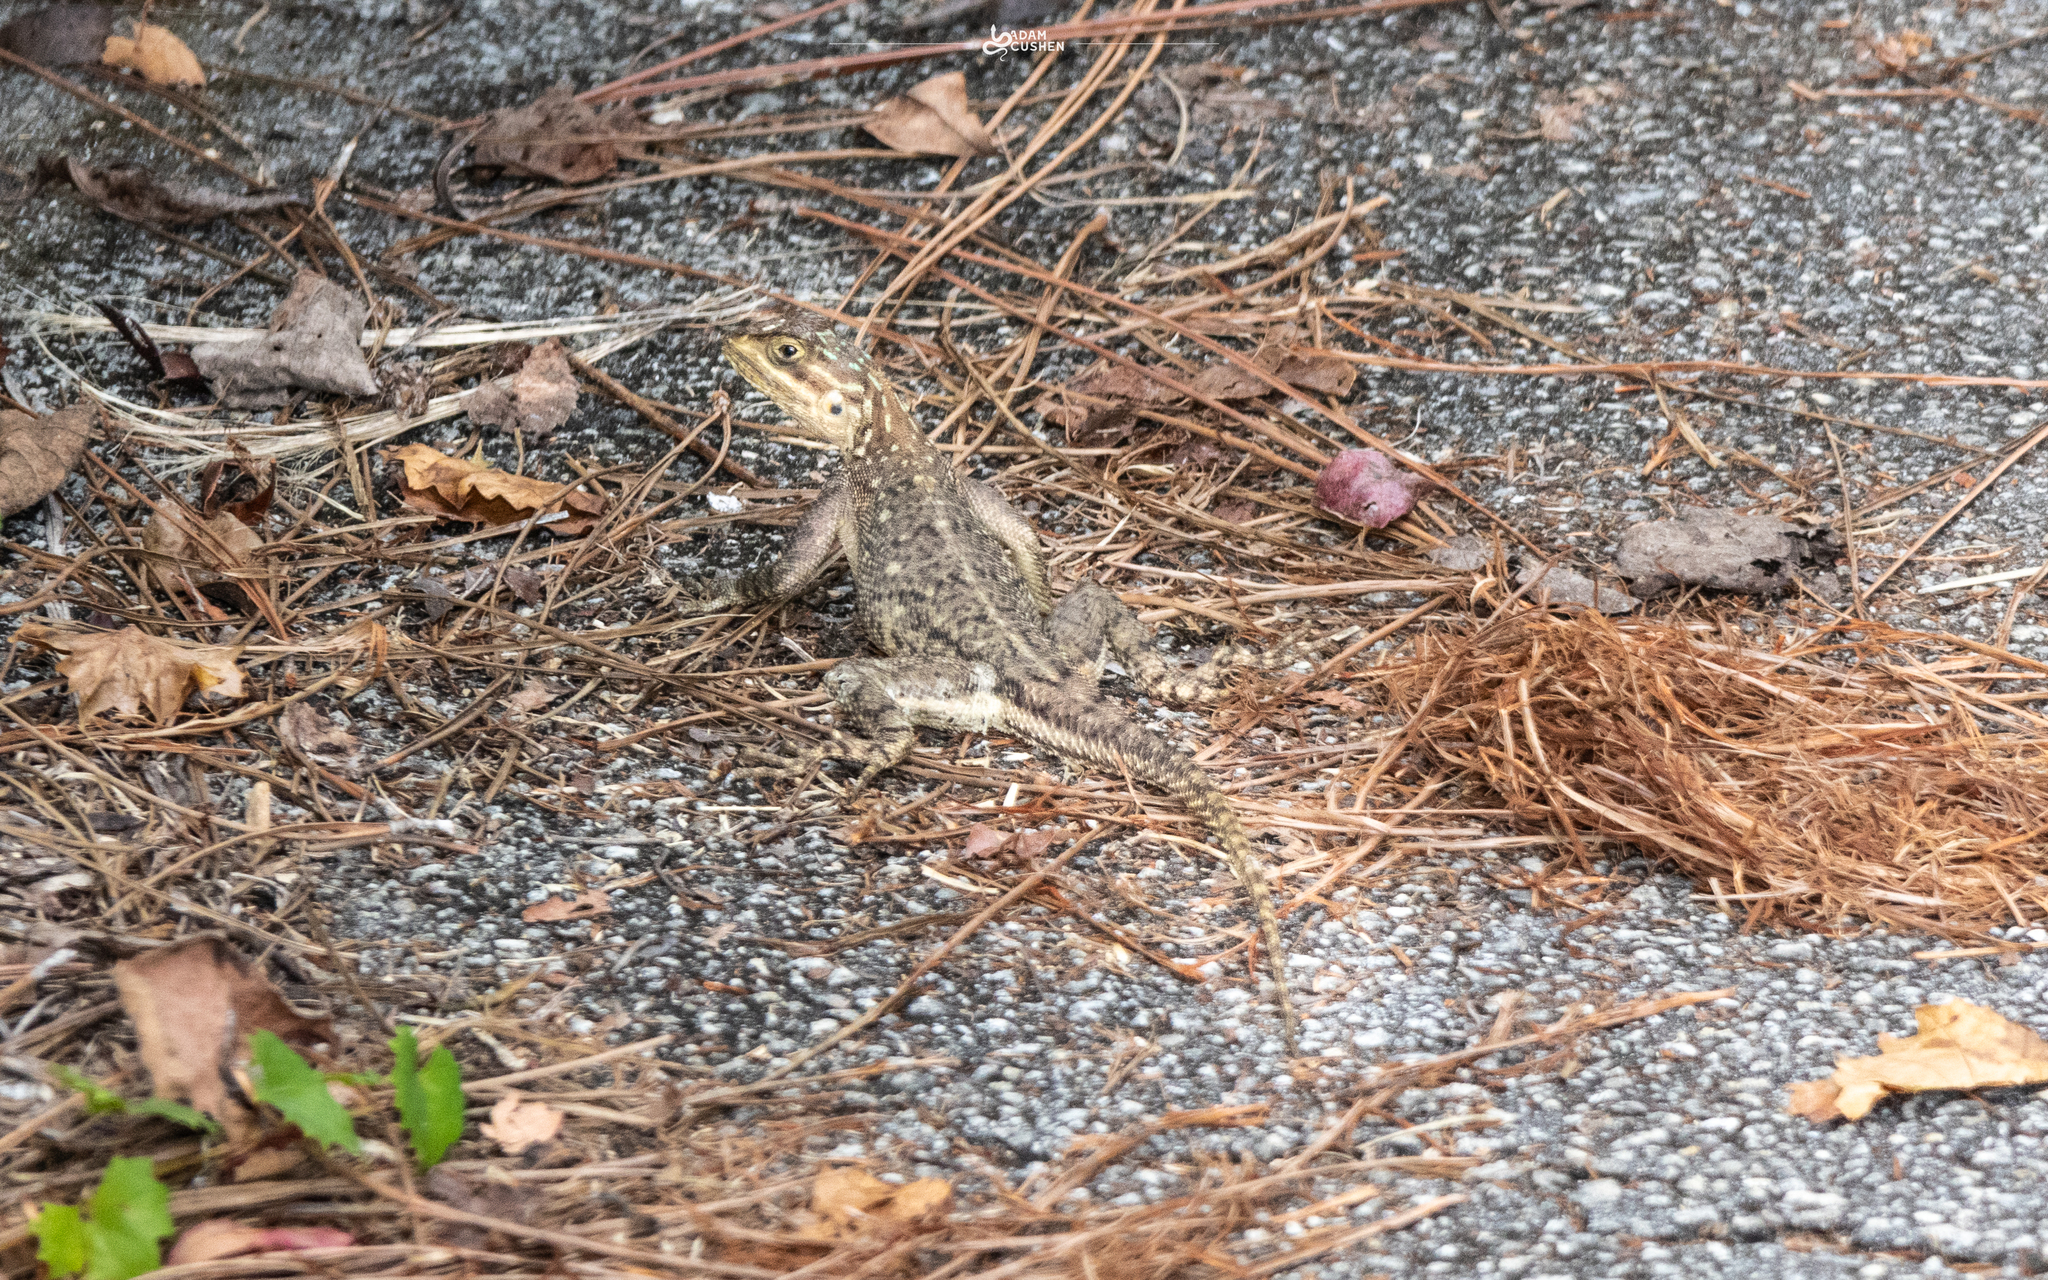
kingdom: Animalia
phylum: Chordata
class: Squamata
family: Agamidae
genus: Agama
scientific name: Agama picticauda
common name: Red-headed agama
